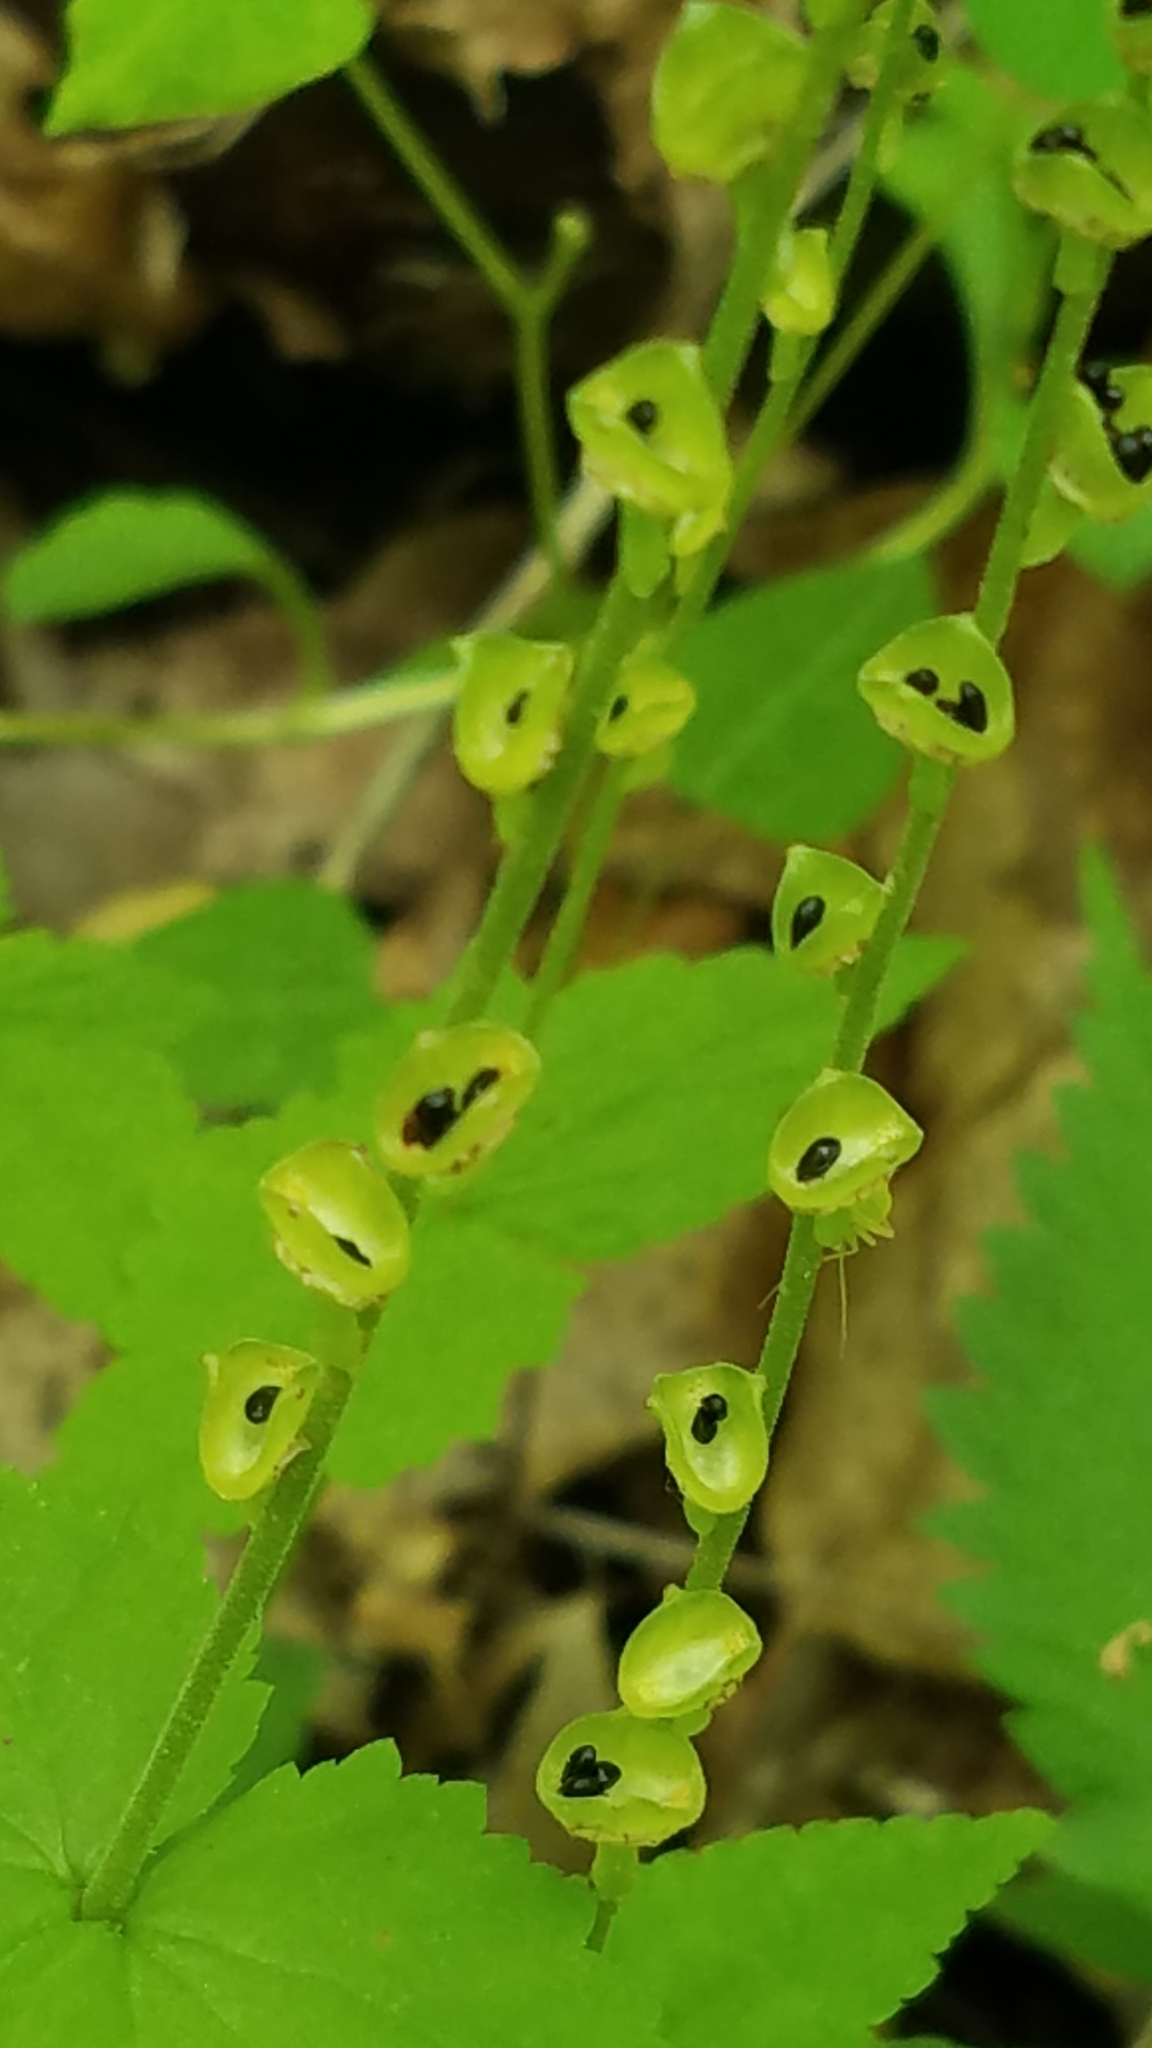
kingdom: Plantae
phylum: Tracheophyta
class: Magnoliopsida
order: Saxifragales
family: Saxifragaceae
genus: Mitella
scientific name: Mitella diphylla
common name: Coolwort
